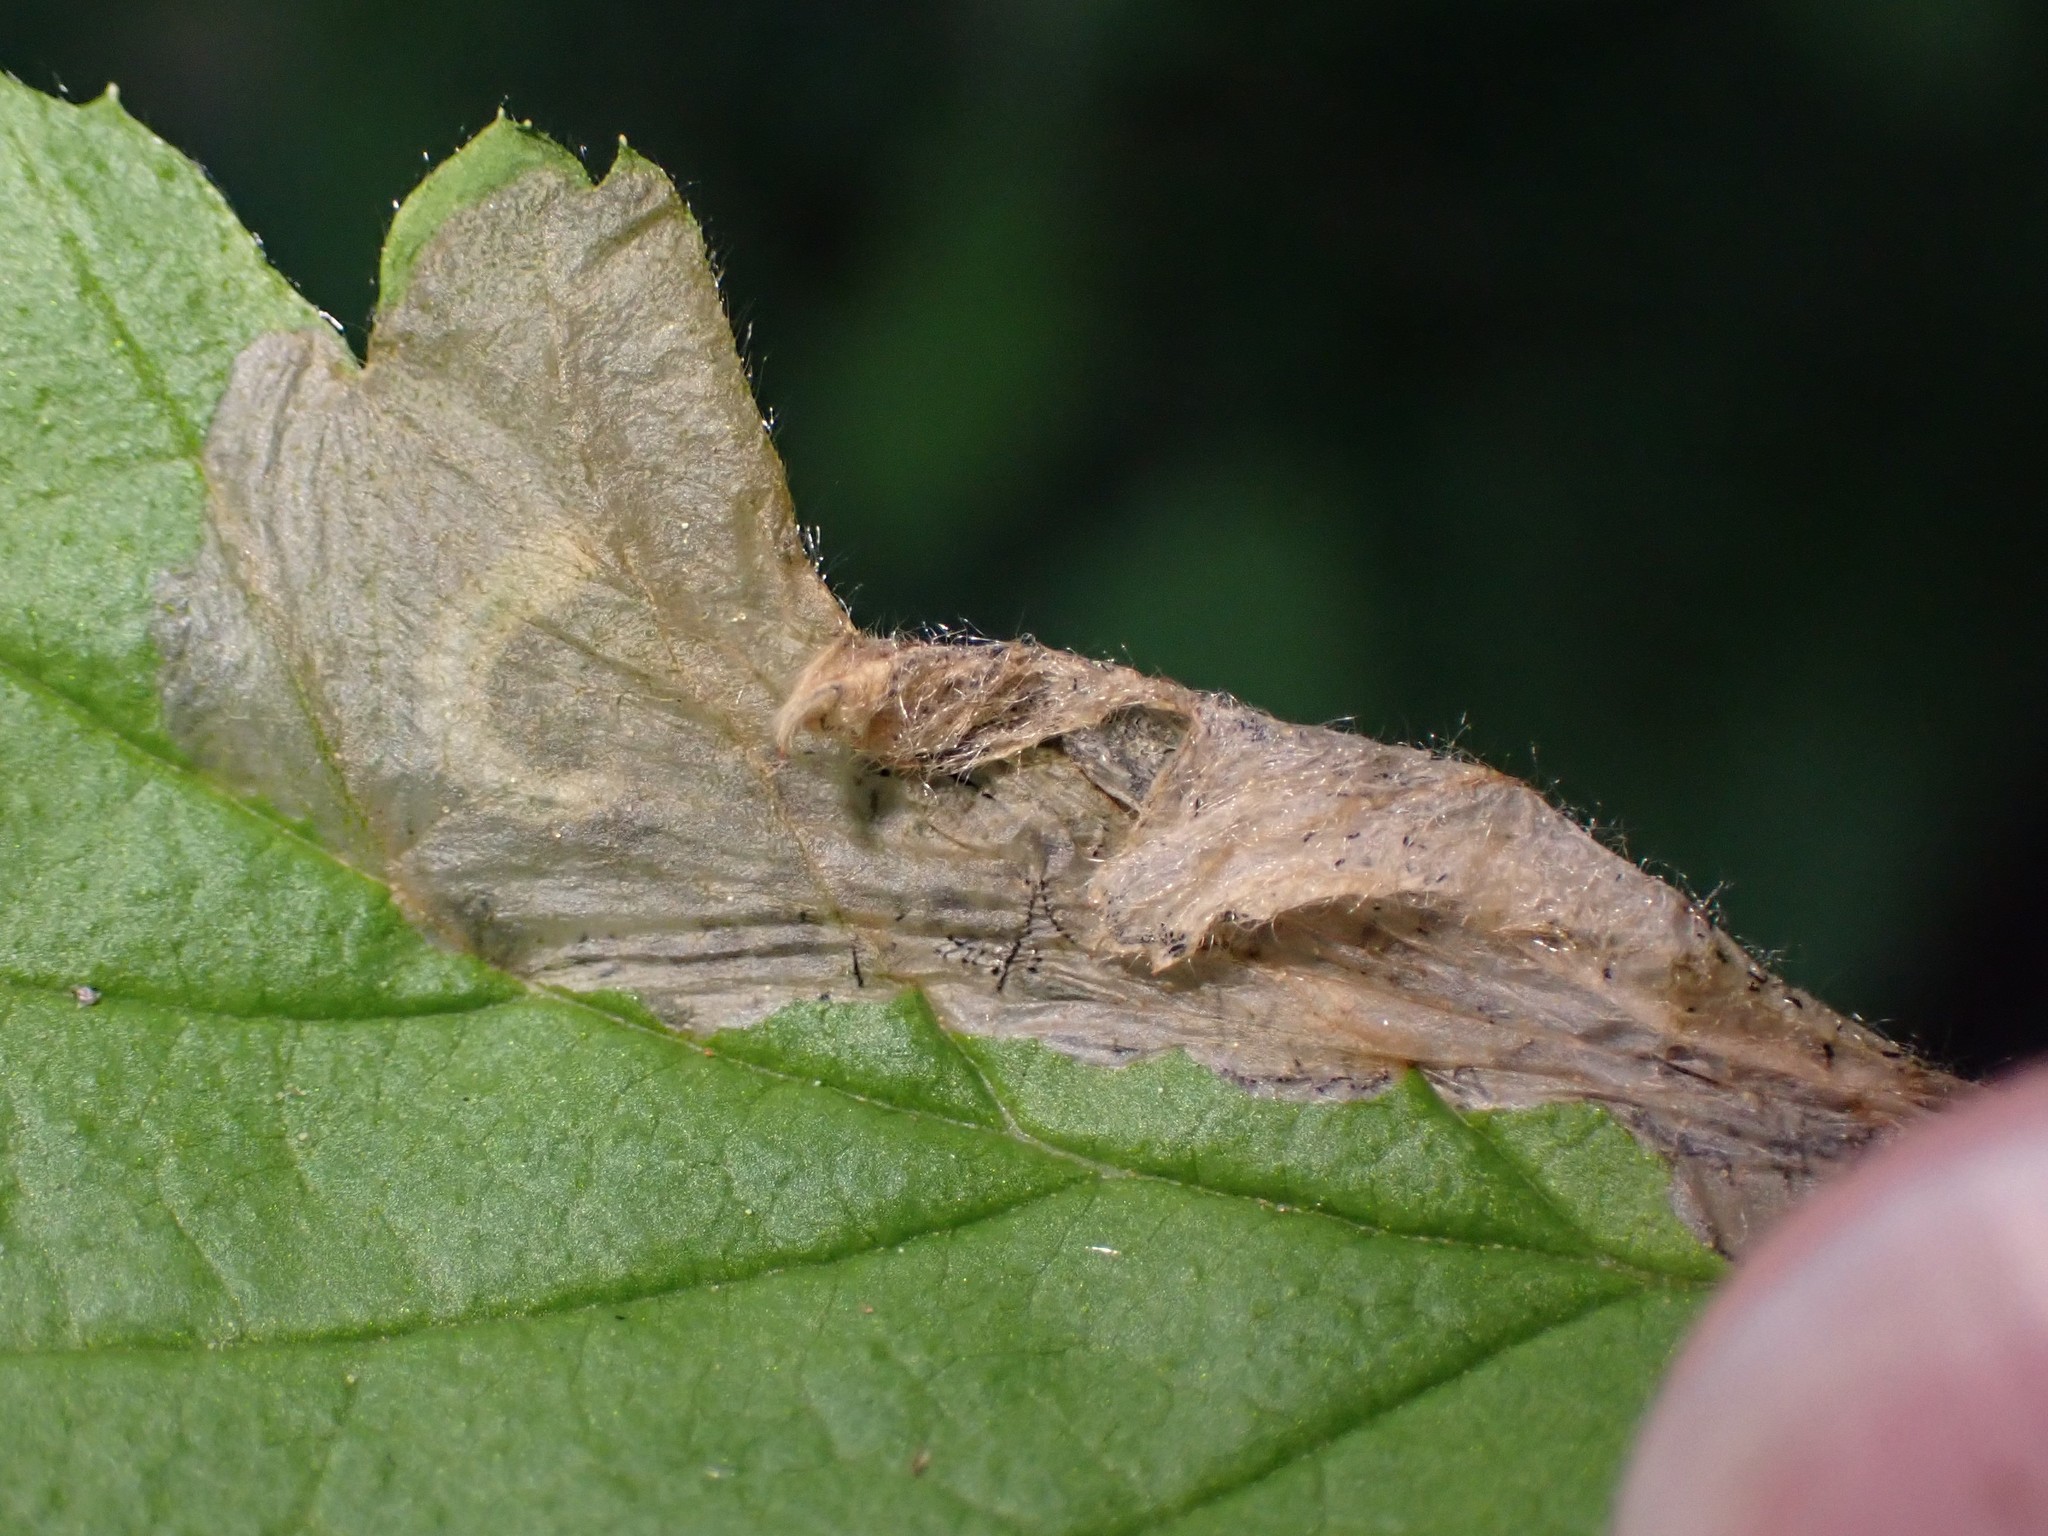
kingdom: Animalia
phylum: Arthropoda
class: Insecta
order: Lepidoptera
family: Eriocraniidae
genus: Eriocrania
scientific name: Eriocrania semipurpurella
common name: Early purple
